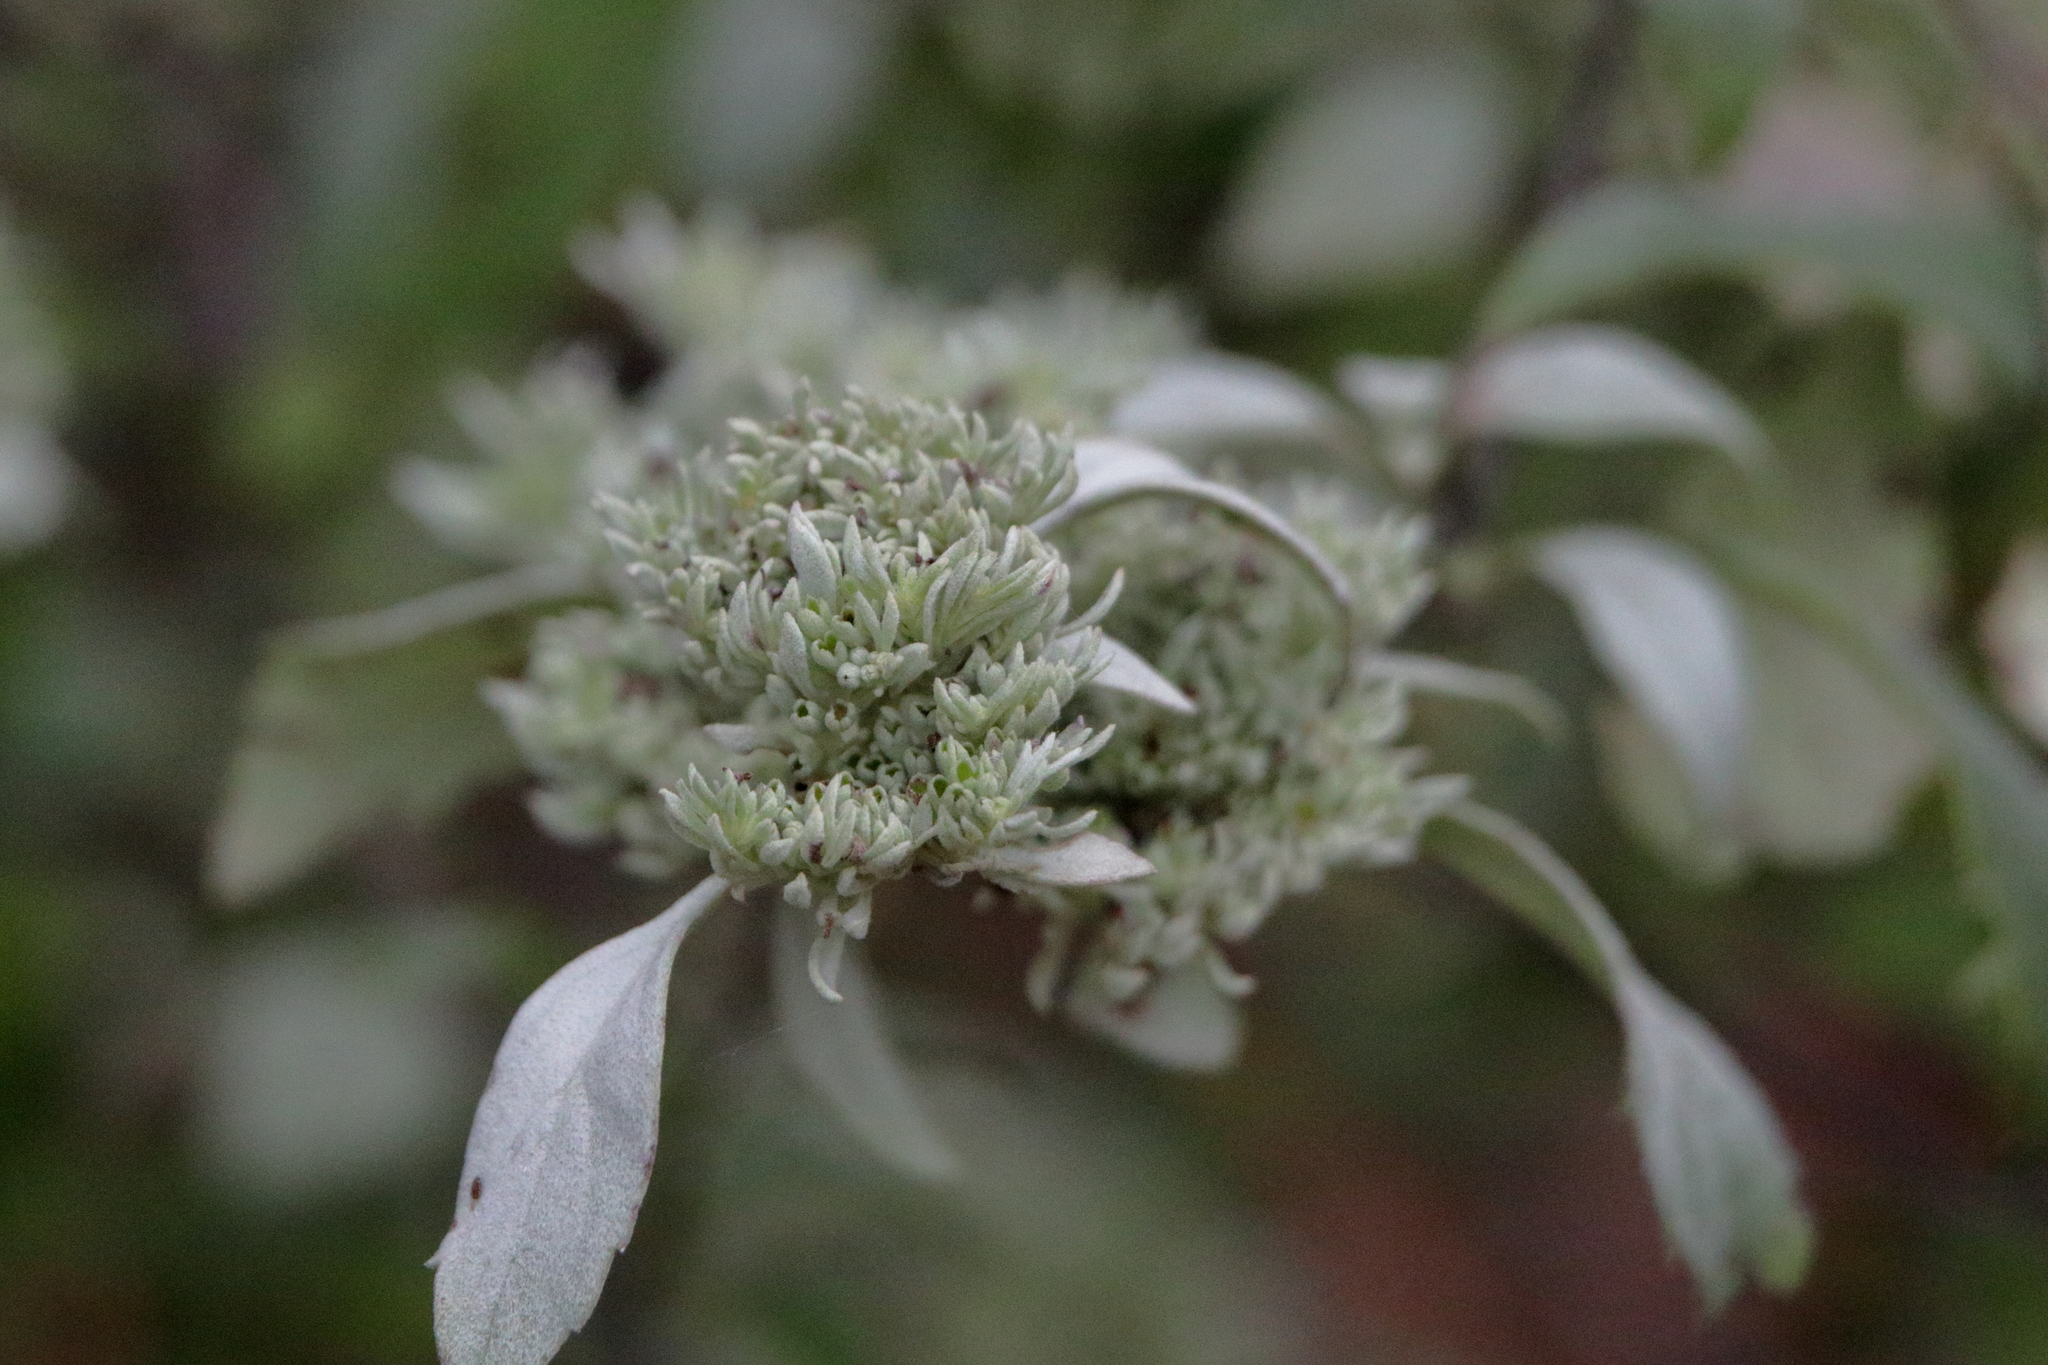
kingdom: Plantae
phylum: Tracheophyta
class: Magnoliopsida
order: Lamiales
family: Lamiaceae
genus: Pycnanthemum
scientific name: Pycnanthemum albescens
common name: White-leaf mountain-mint
